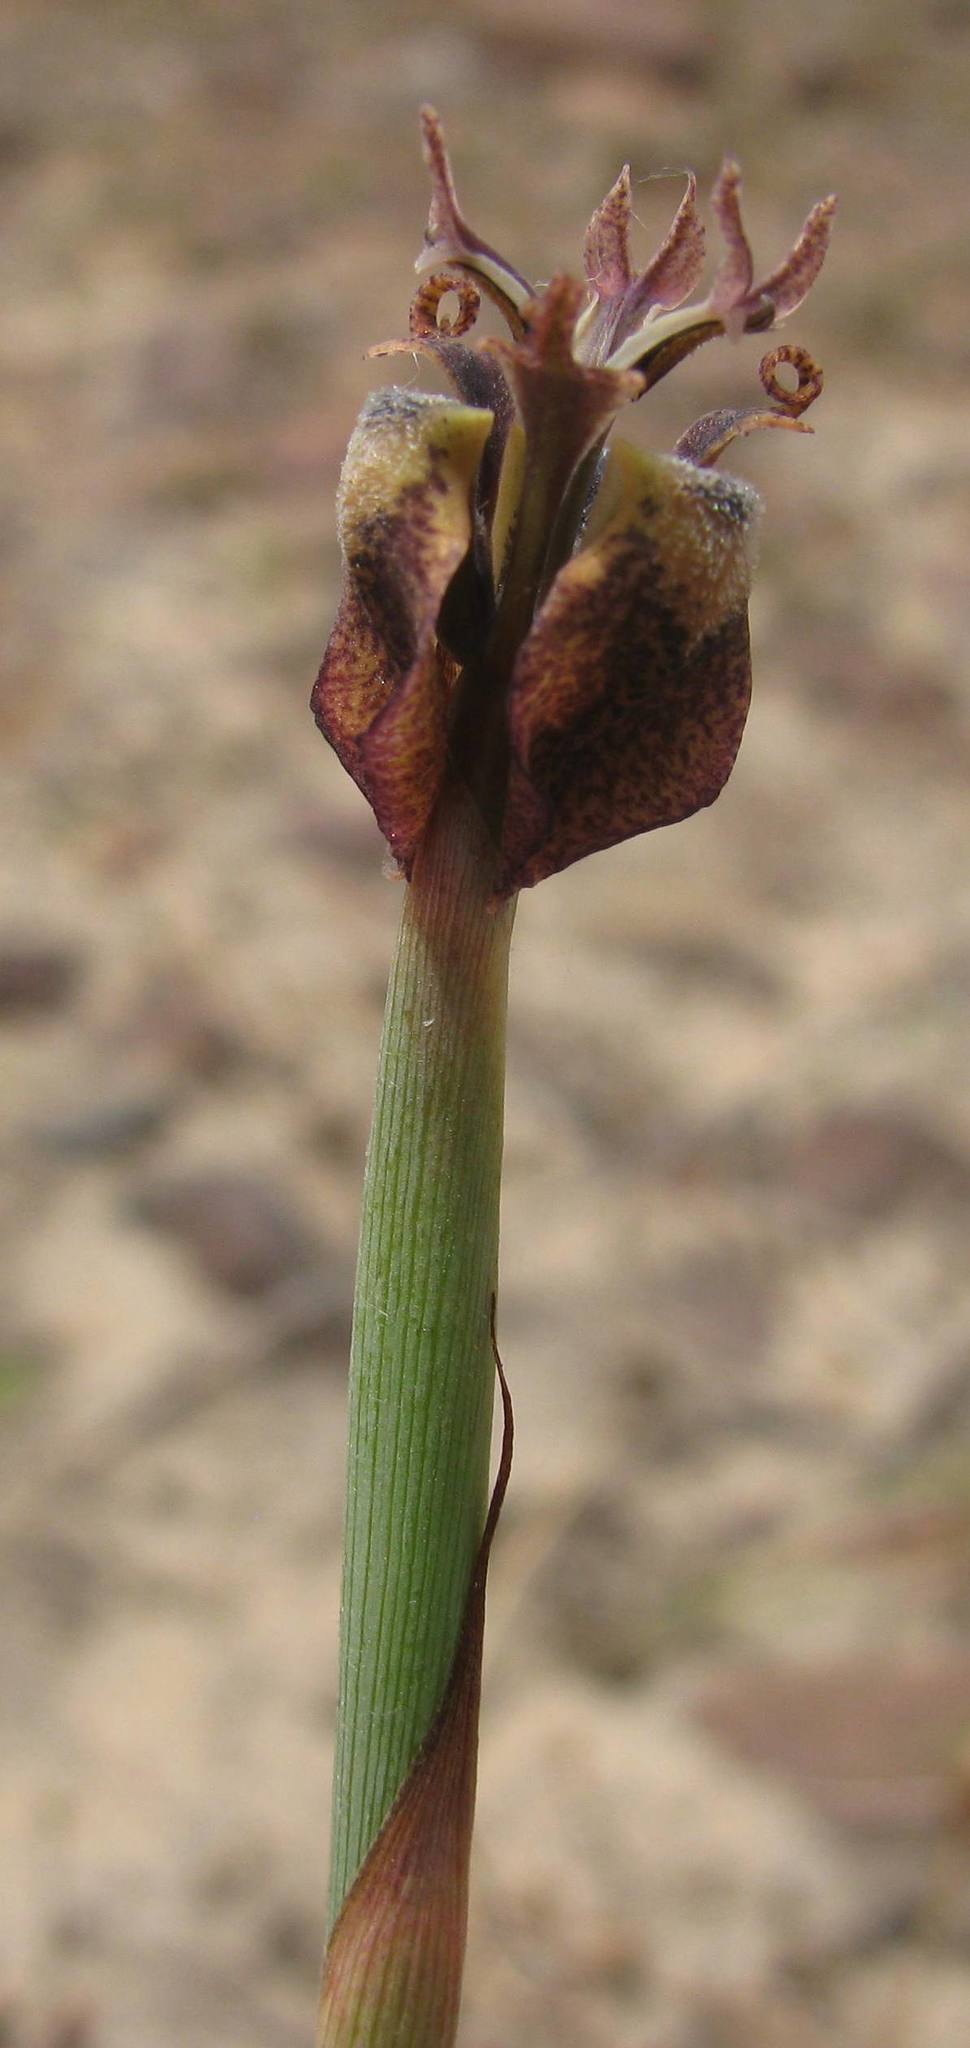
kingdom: Plantae
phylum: Tracheophyta
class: Liliopsida
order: Asparagales
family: Iridaceae
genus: Moraea
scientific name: Moraea unguiculata
